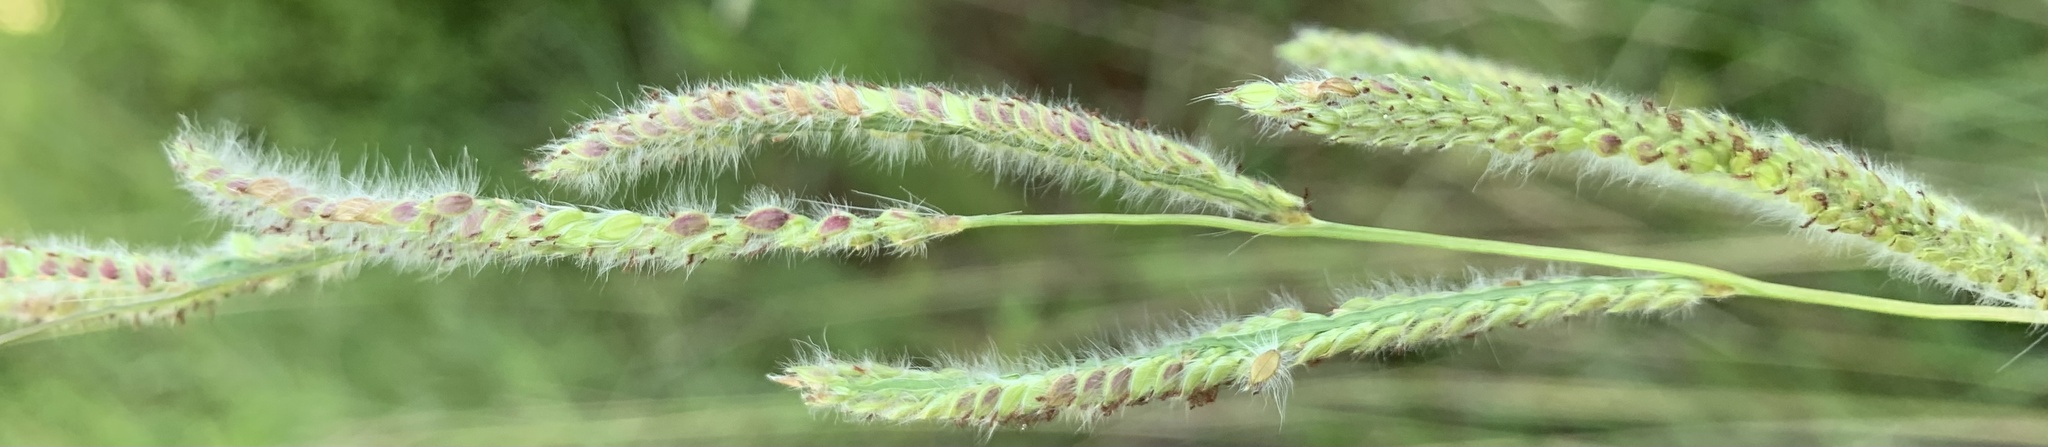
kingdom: Plantae
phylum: Tracheophyta
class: Liliopsida
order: Poales
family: Poaceae
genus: Paspalum
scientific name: Paspalum urvillei
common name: Vasey's grass
